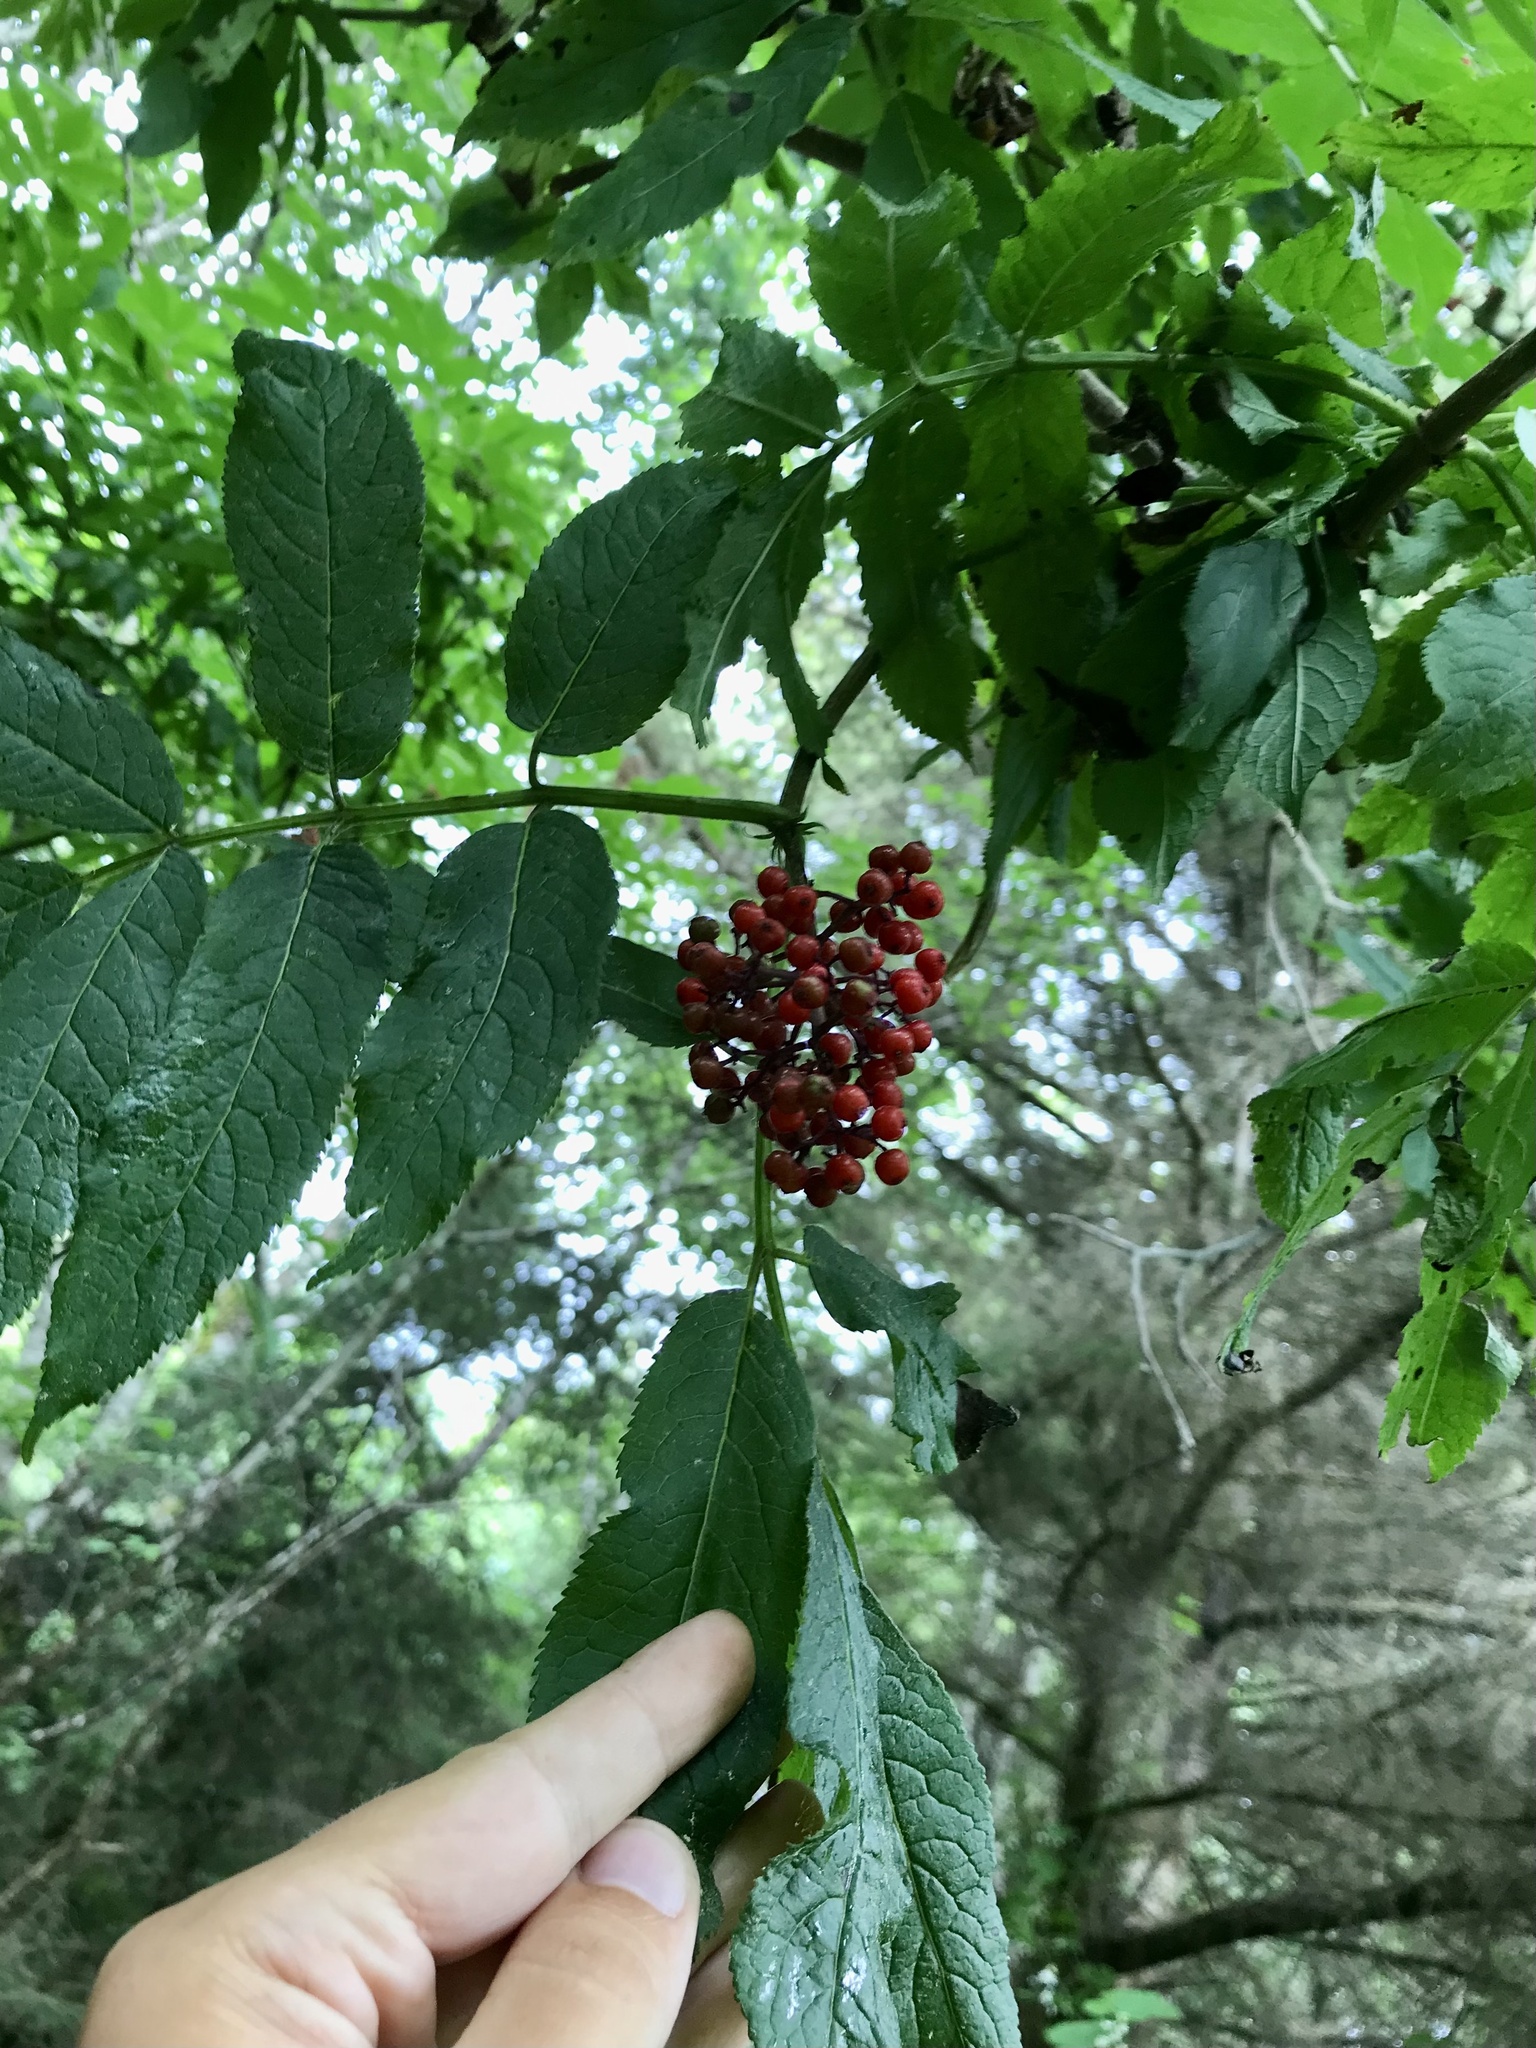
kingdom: Plantae
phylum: Tracheophyta
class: Magnoliopsida
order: Dipsacales
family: Viburnaceae
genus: Sambucus
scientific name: Sambucus racemosa
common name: Red-berried elder
